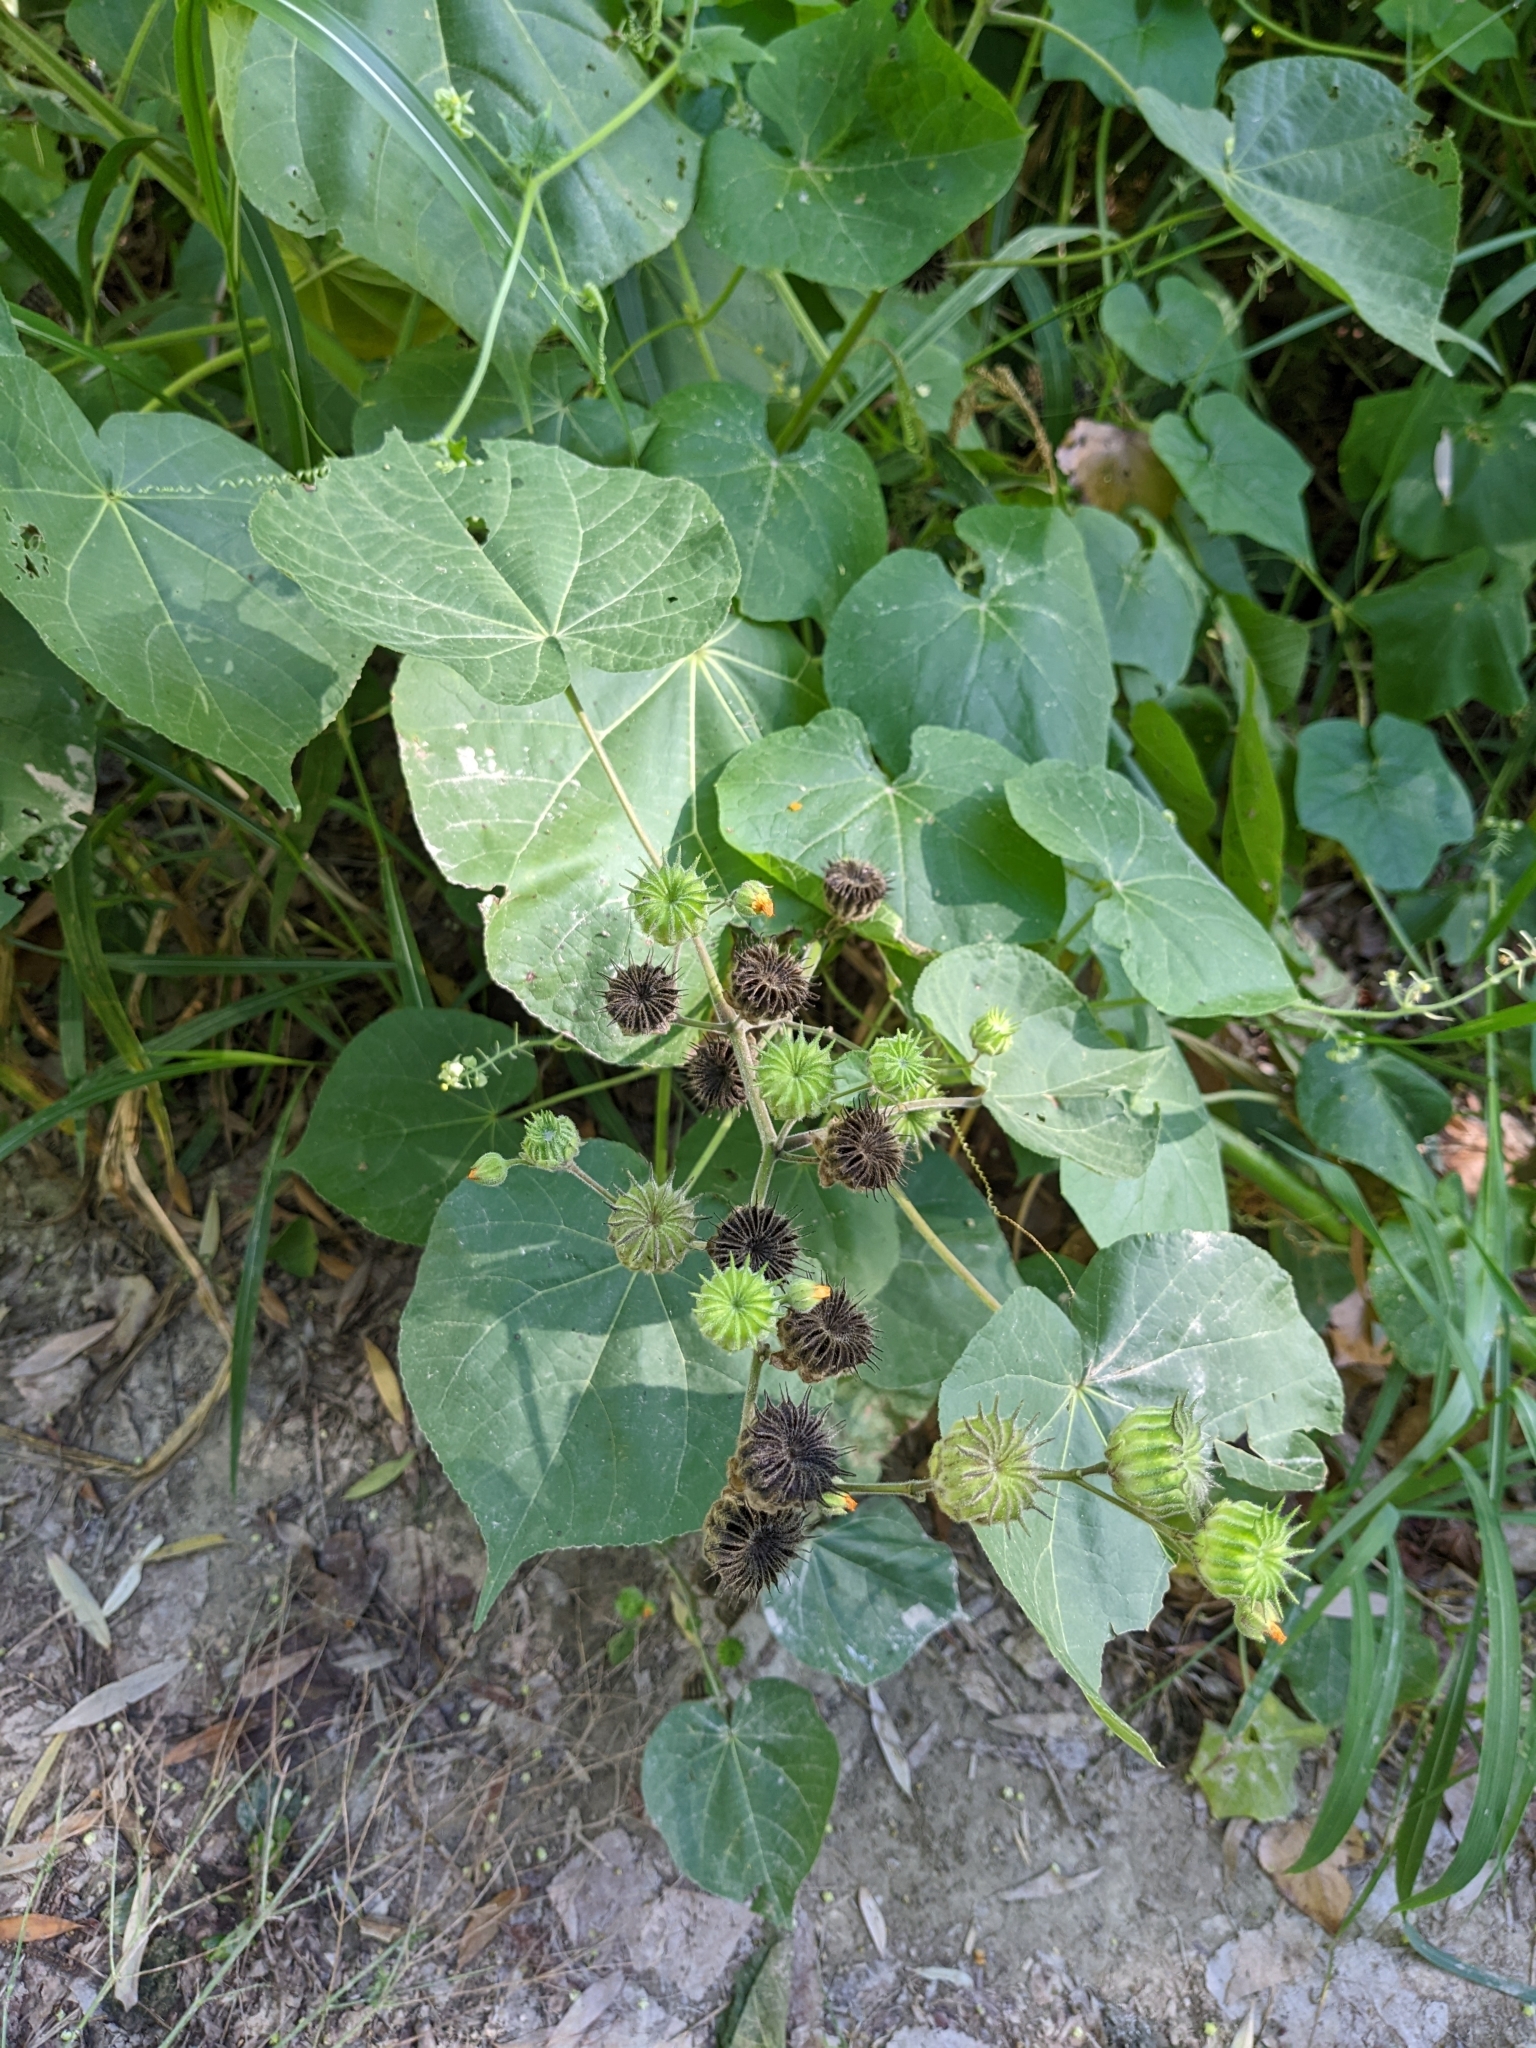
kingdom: Plantae
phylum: Tracheophyta
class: Magnoliopsida
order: Malvales
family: Malvaceae
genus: Abutilon
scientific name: Abutilon theophrasti
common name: Velvetleaf
